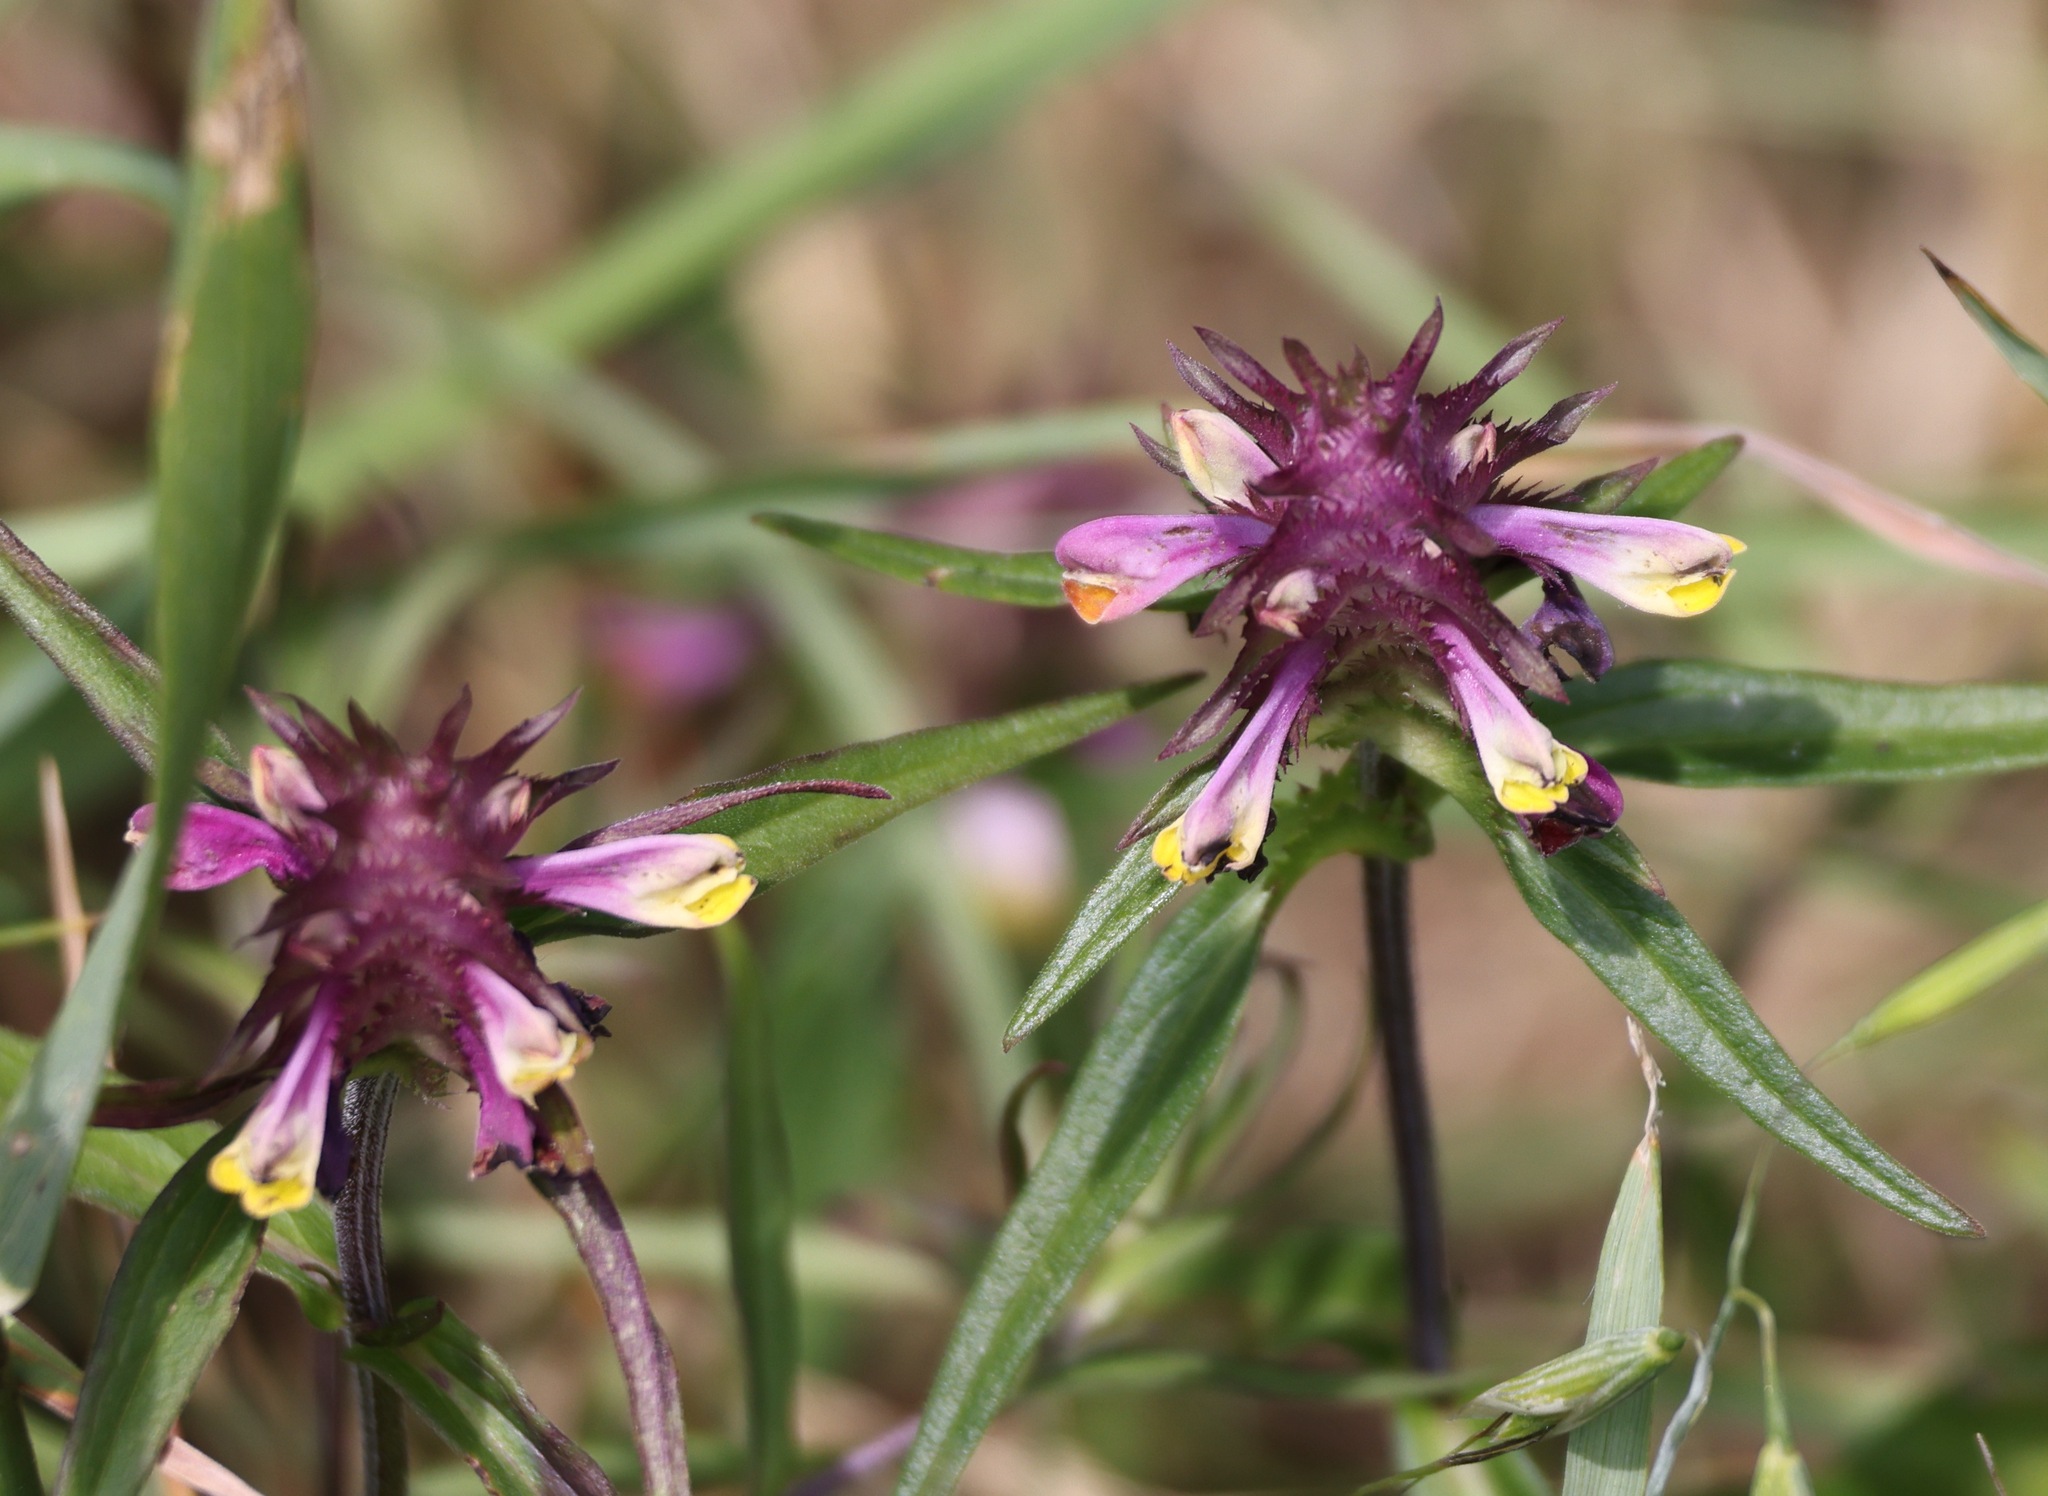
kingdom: Plantae
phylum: Tracheophyta
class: Magnoliopsida
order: Lamiales
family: Orobanchaceae
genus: Melampyrum
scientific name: Melampyrum cristatum
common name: Crested cow-wheat
